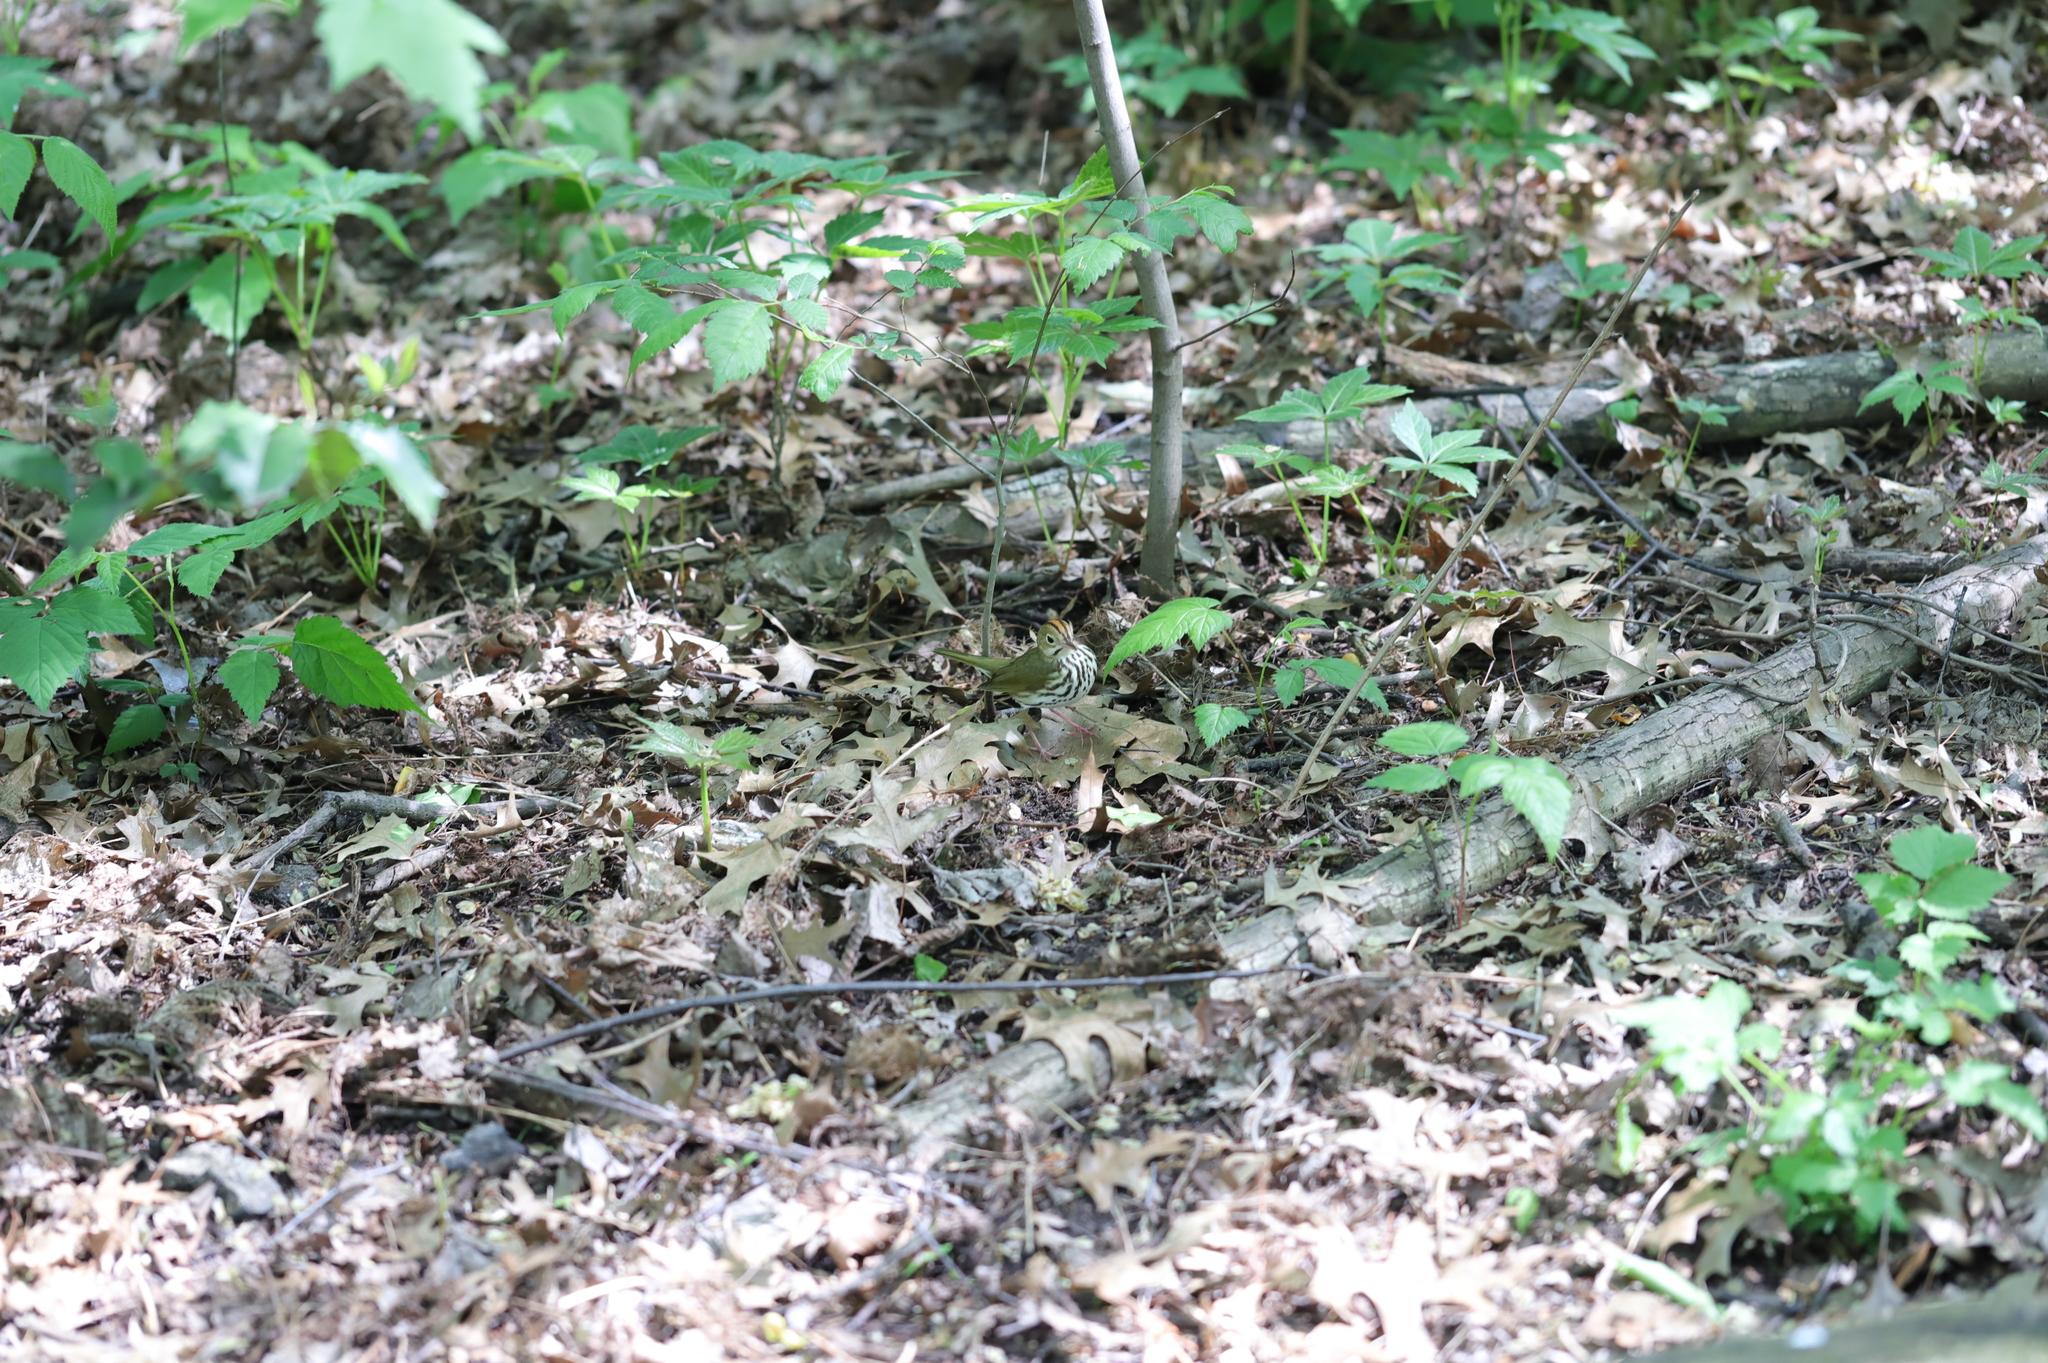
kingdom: Animalia
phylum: Chordata
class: Aves
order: Passeriformes
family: Parulidae
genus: Seiurus
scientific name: Seiurus aurocapilla
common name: Ovenbird
